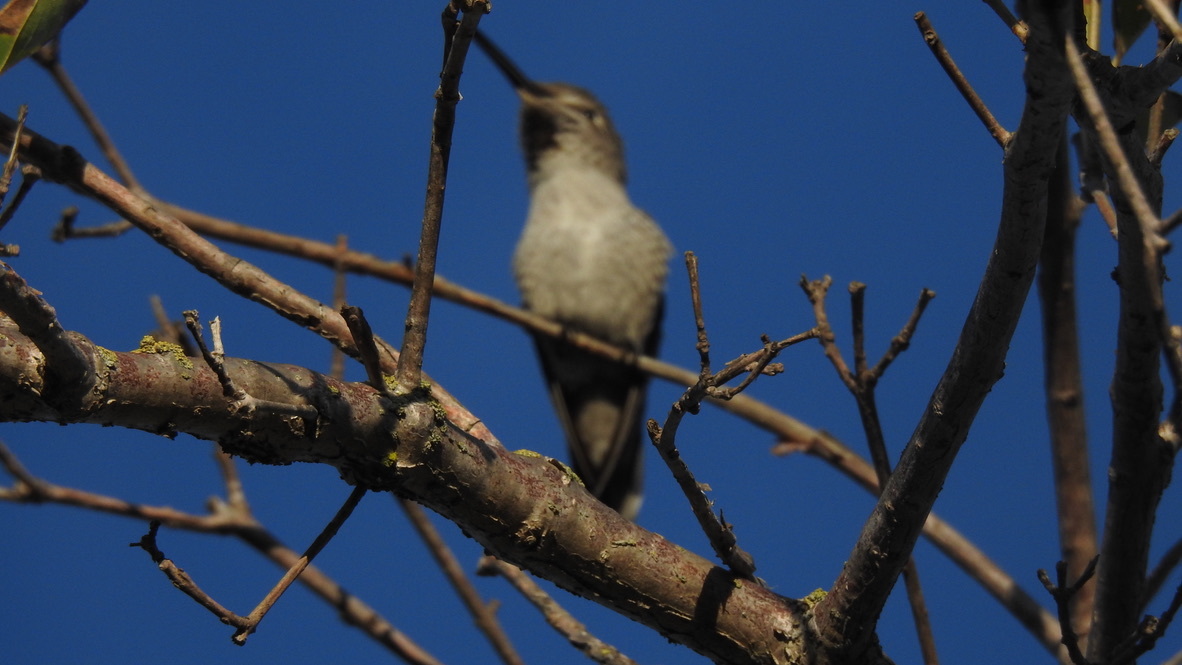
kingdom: Animalia
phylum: Chordata
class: Aves
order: Apodiformes
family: Trochilidae
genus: Calypte
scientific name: Calypte anna
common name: Anna's hummingbird
